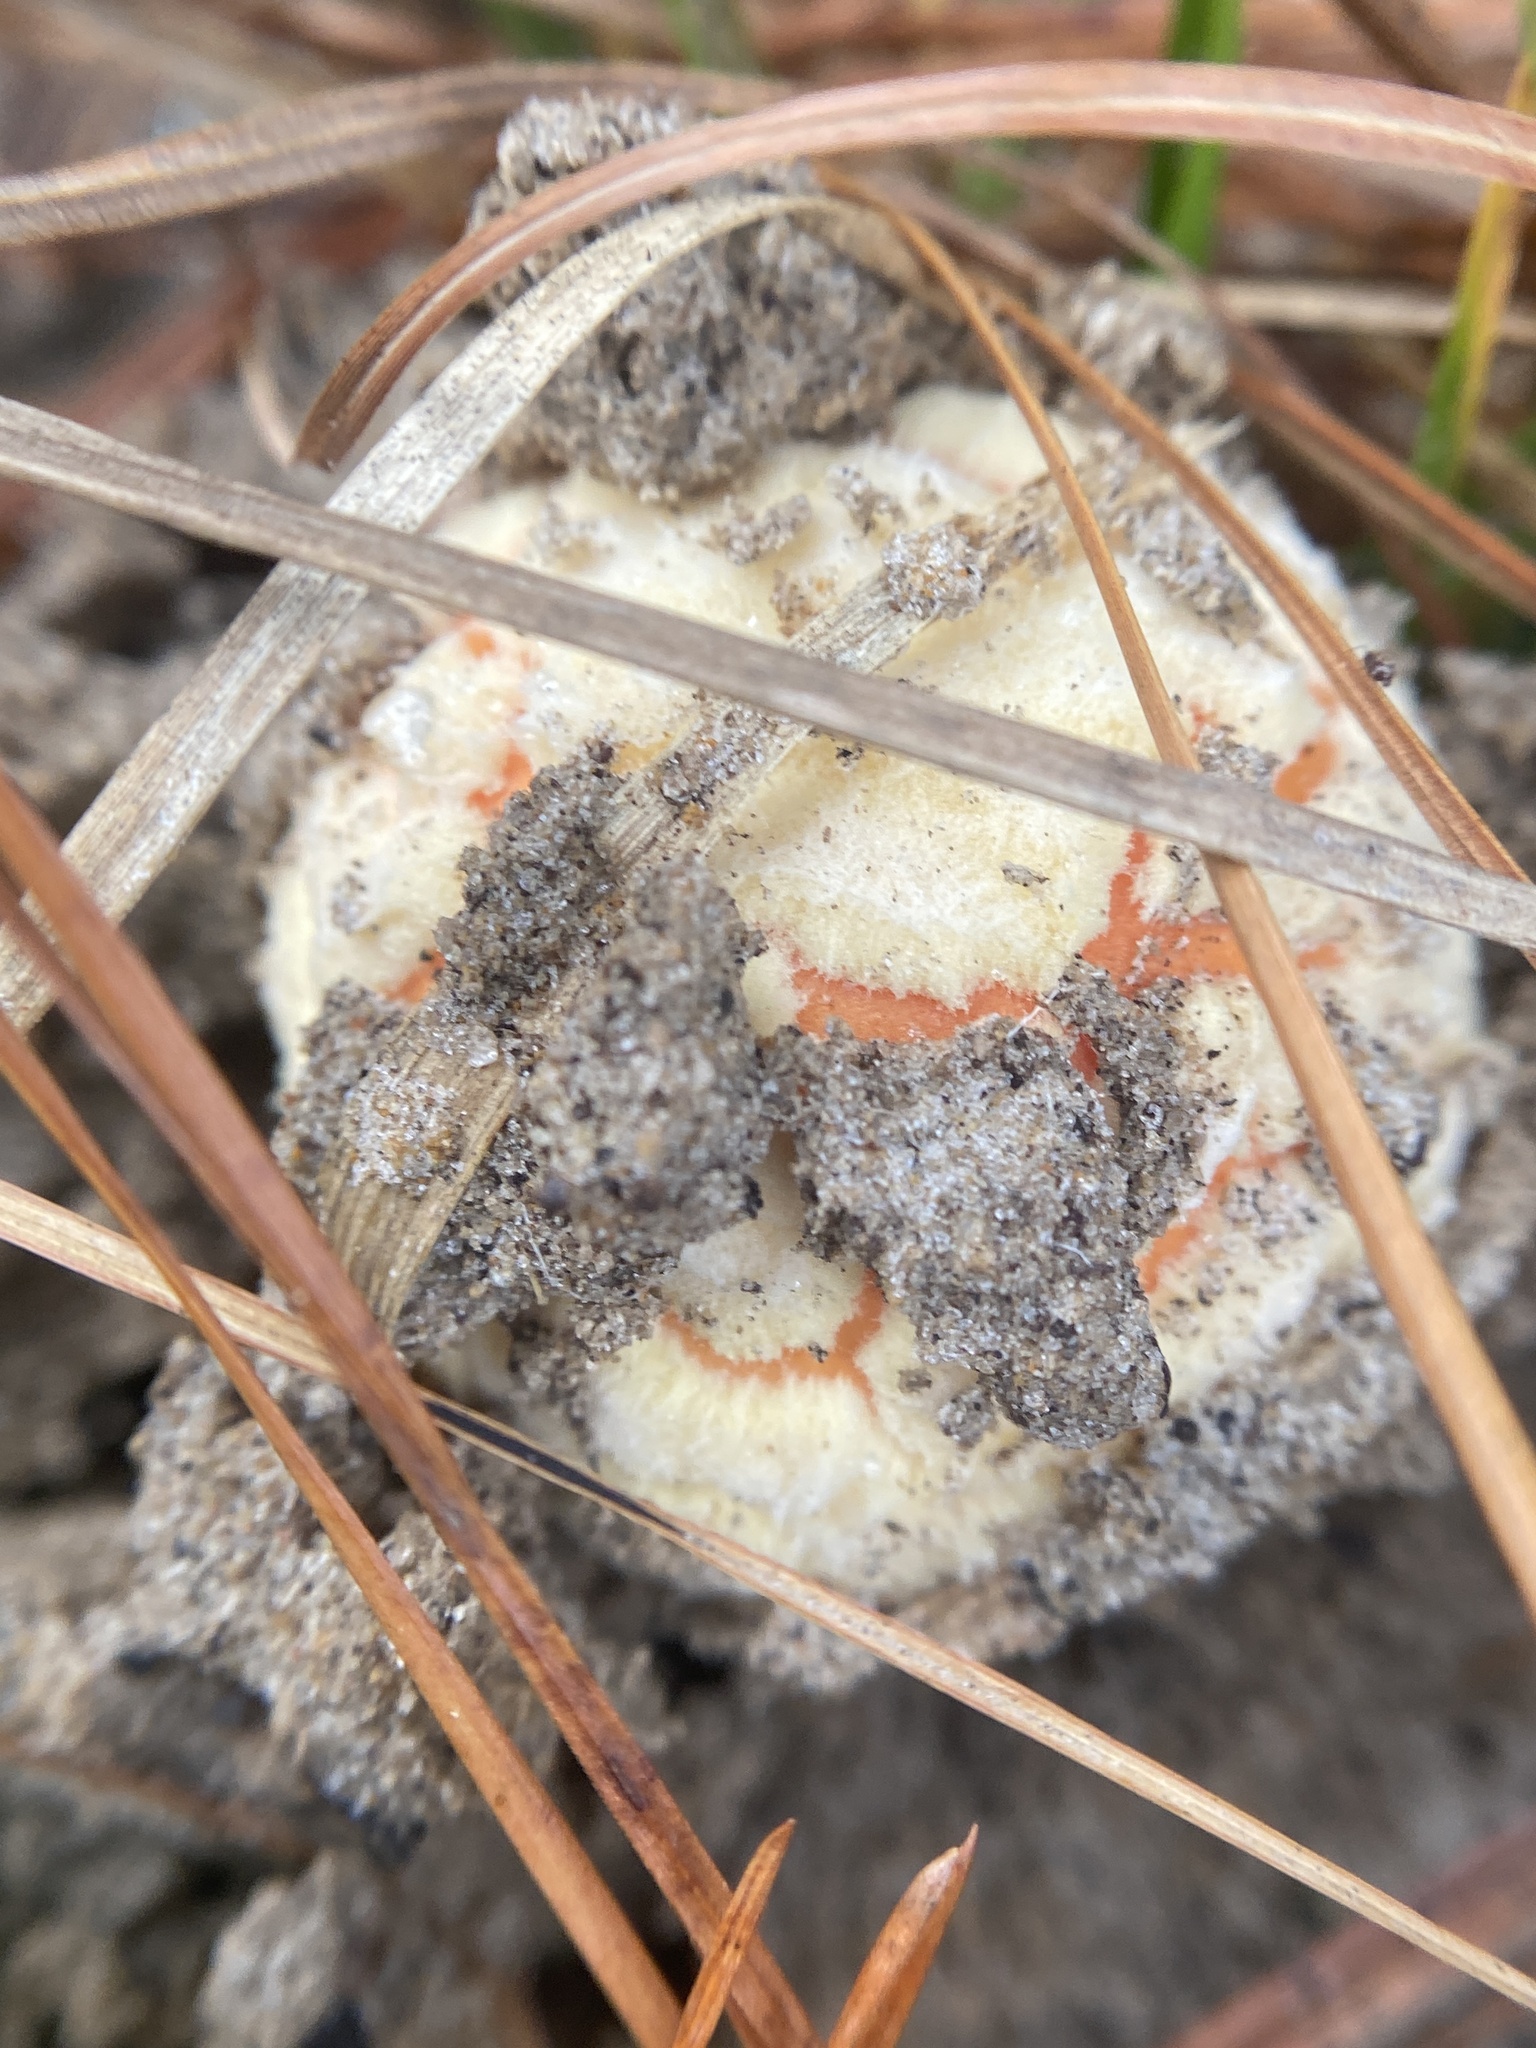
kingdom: Fungi
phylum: Basidiomycota
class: Agaricomycetes
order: Agaricales
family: Amanitaceae
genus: Amanita
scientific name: Amanita persicina
